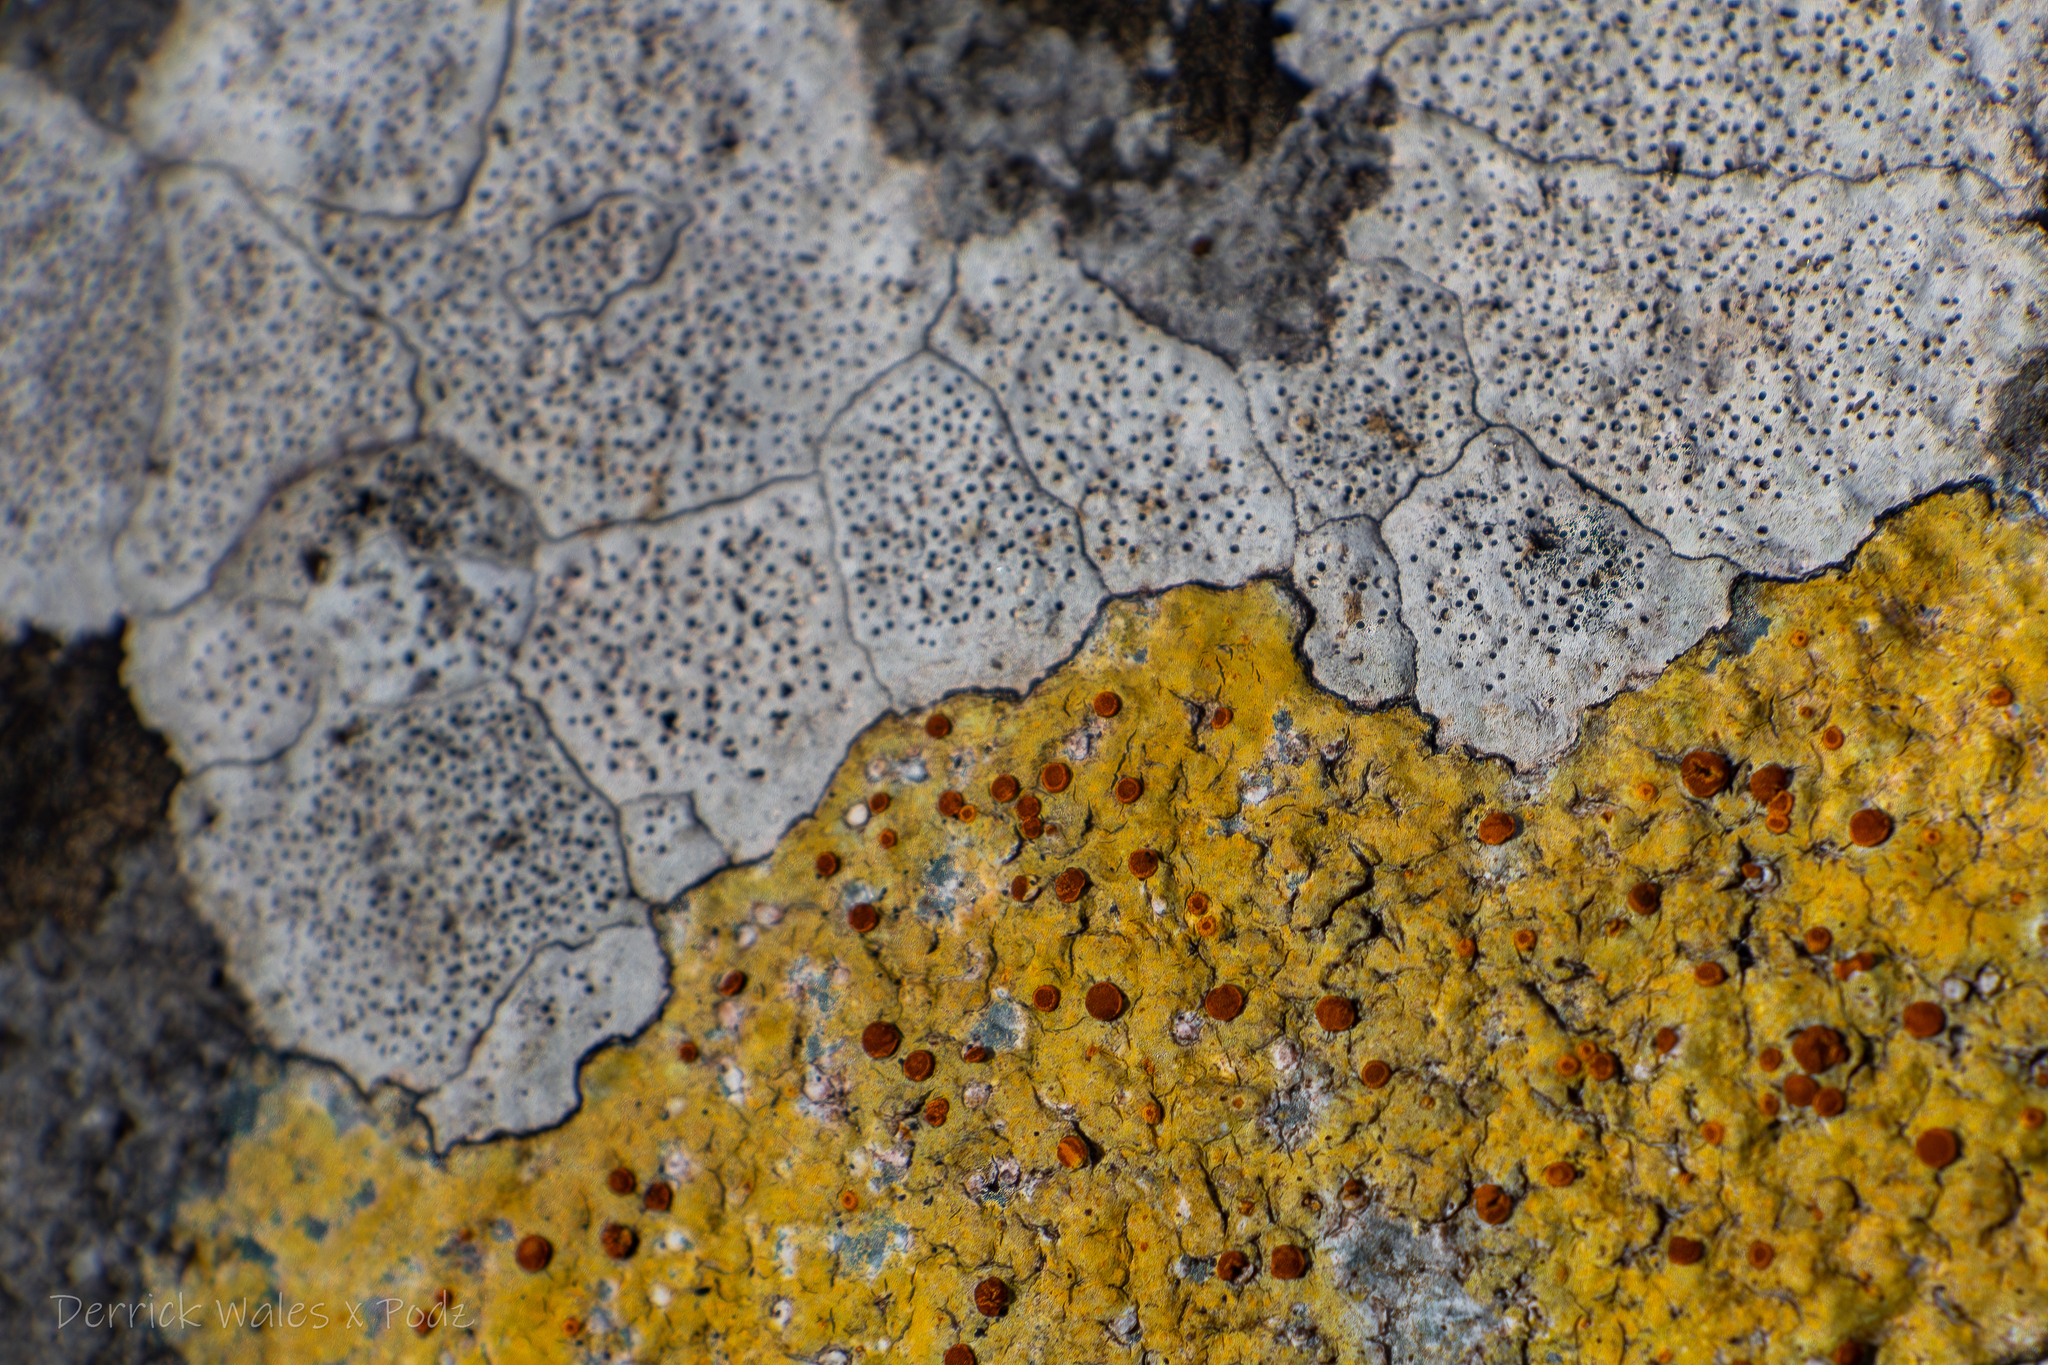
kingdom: Fungi
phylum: Ascomycota
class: Eurotiomycetes
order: Verrucariales
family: Verrucariaceae
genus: Bagliettoa
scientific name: Bagliettoa
